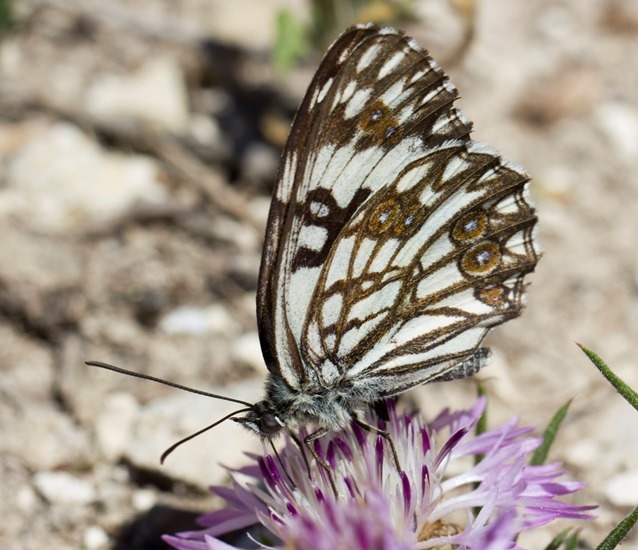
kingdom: Animalia
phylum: Arthropoda
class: Insecta
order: Lepidoptera
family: Nymphalidae
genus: Melanargia
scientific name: Melanargia occitanica
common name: Western marbled white
